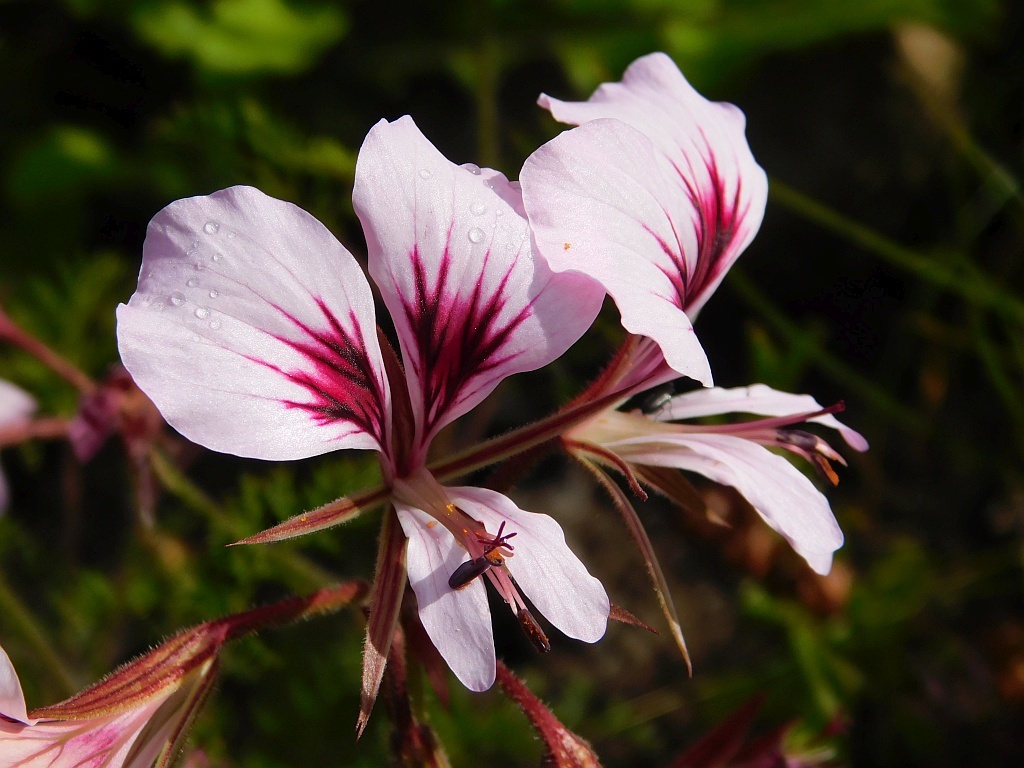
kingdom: Plantae
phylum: Tracheophyta
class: Magnoliopsida
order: Geraniales
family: Geraniaceae
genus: Pelargonium
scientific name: Pelargonium myrrhifolium
